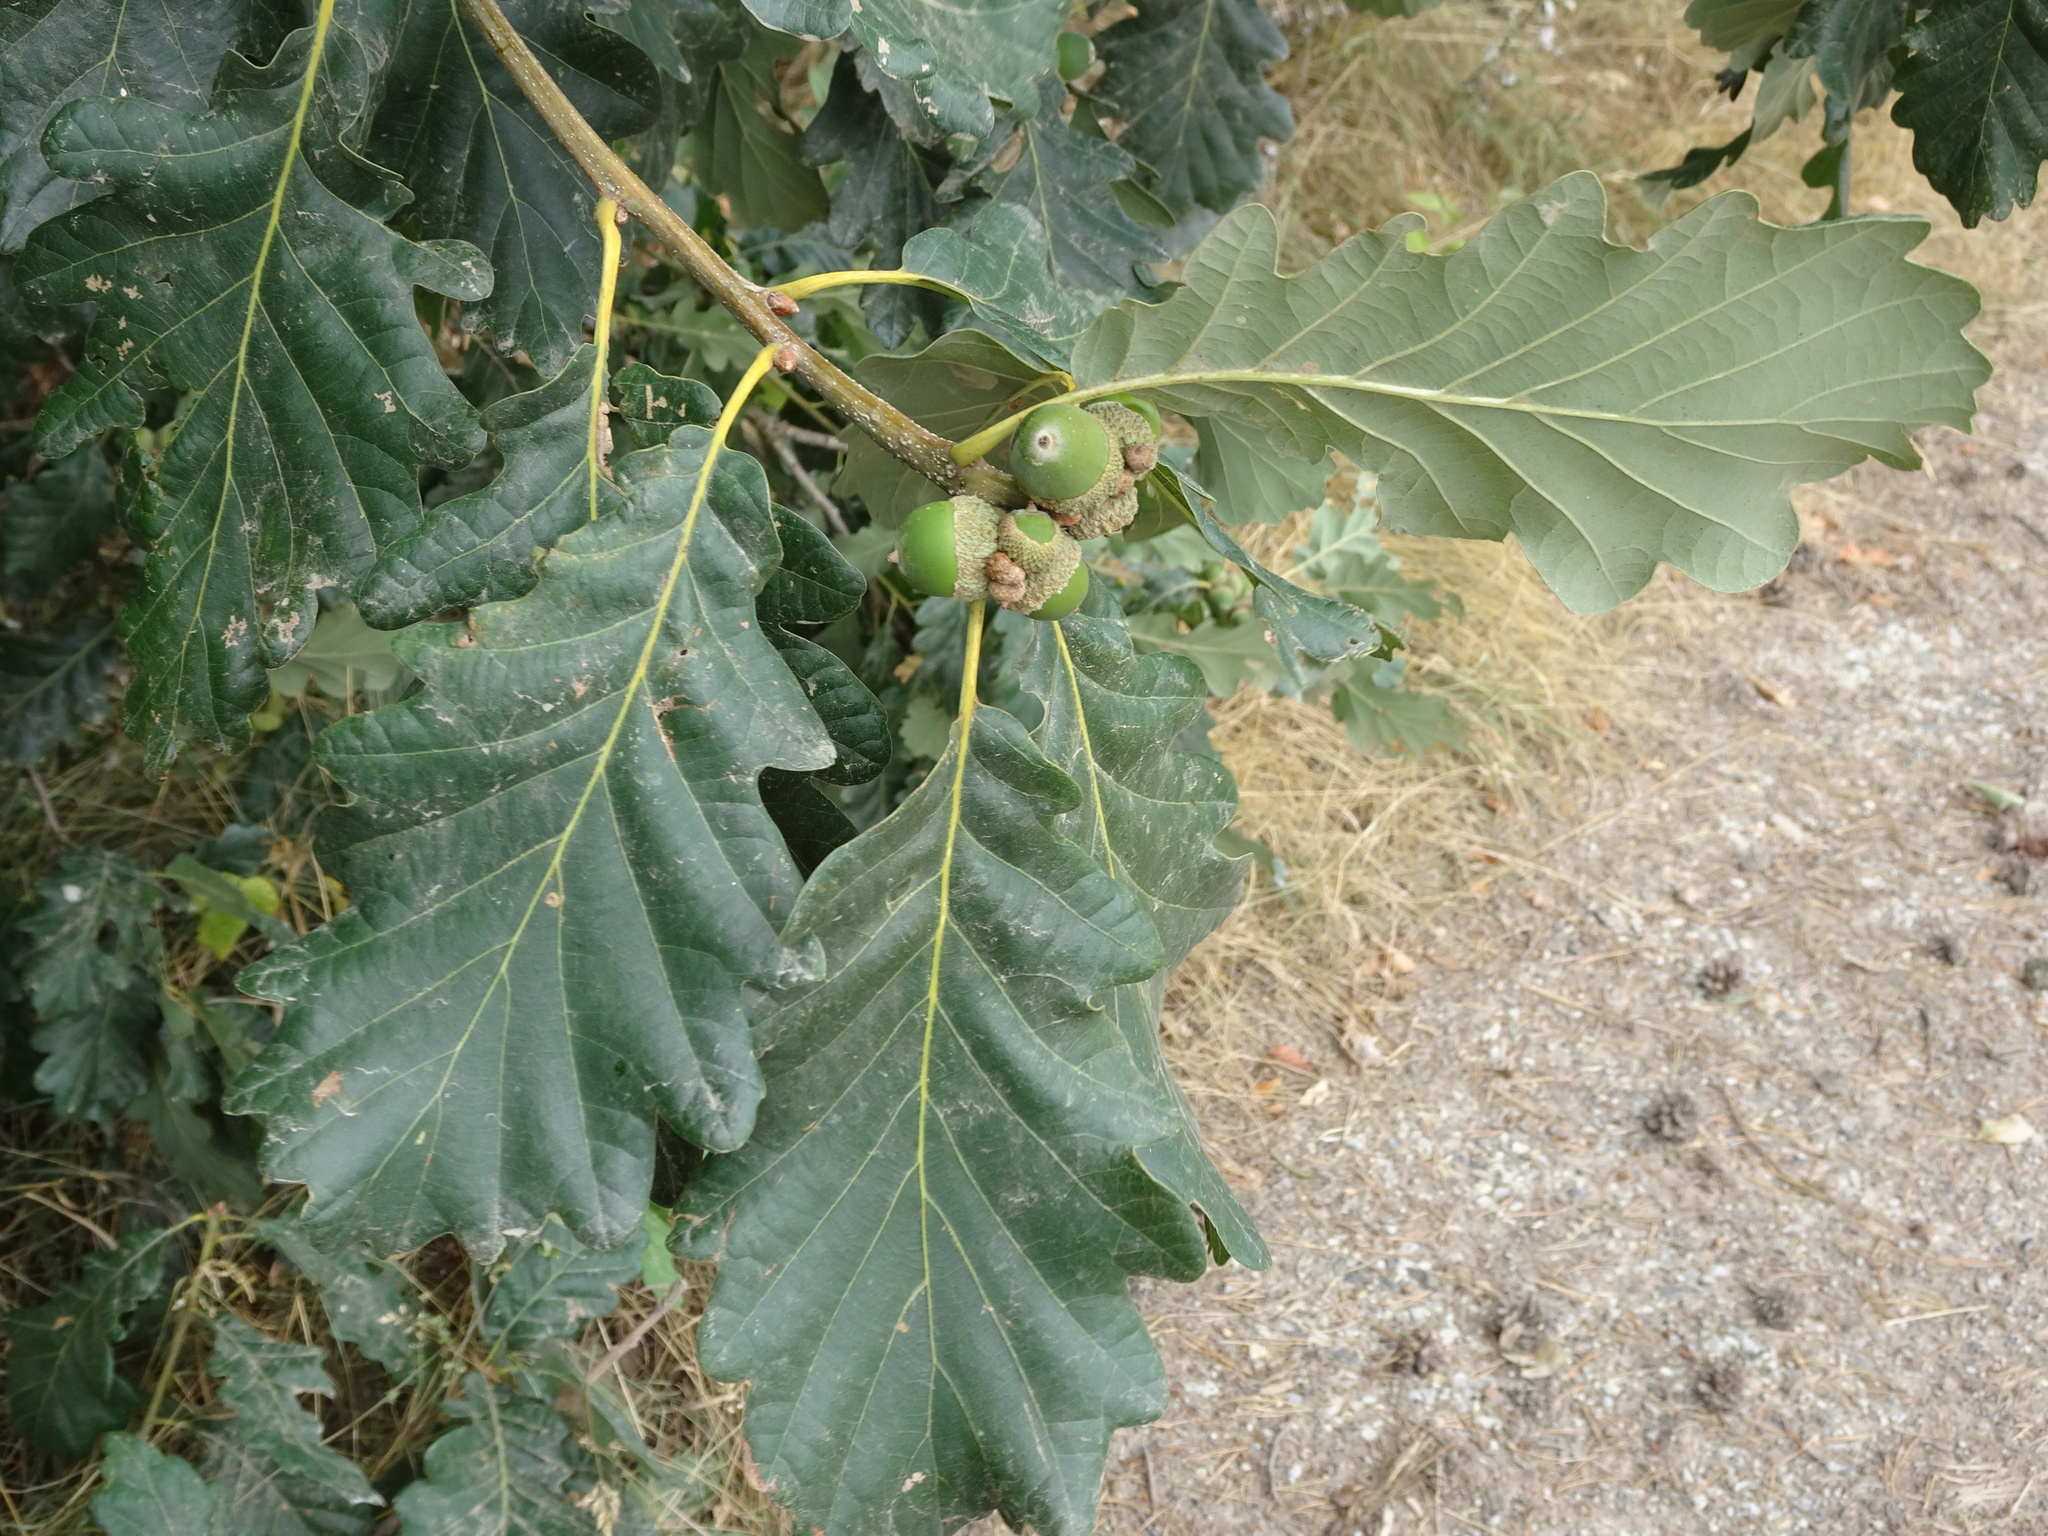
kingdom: Plantae
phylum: Tracheophyta
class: Magnoliopsida
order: Fagales
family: Fagaceae
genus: Quercus
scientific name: Quercus petraea
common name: Sessile oak
